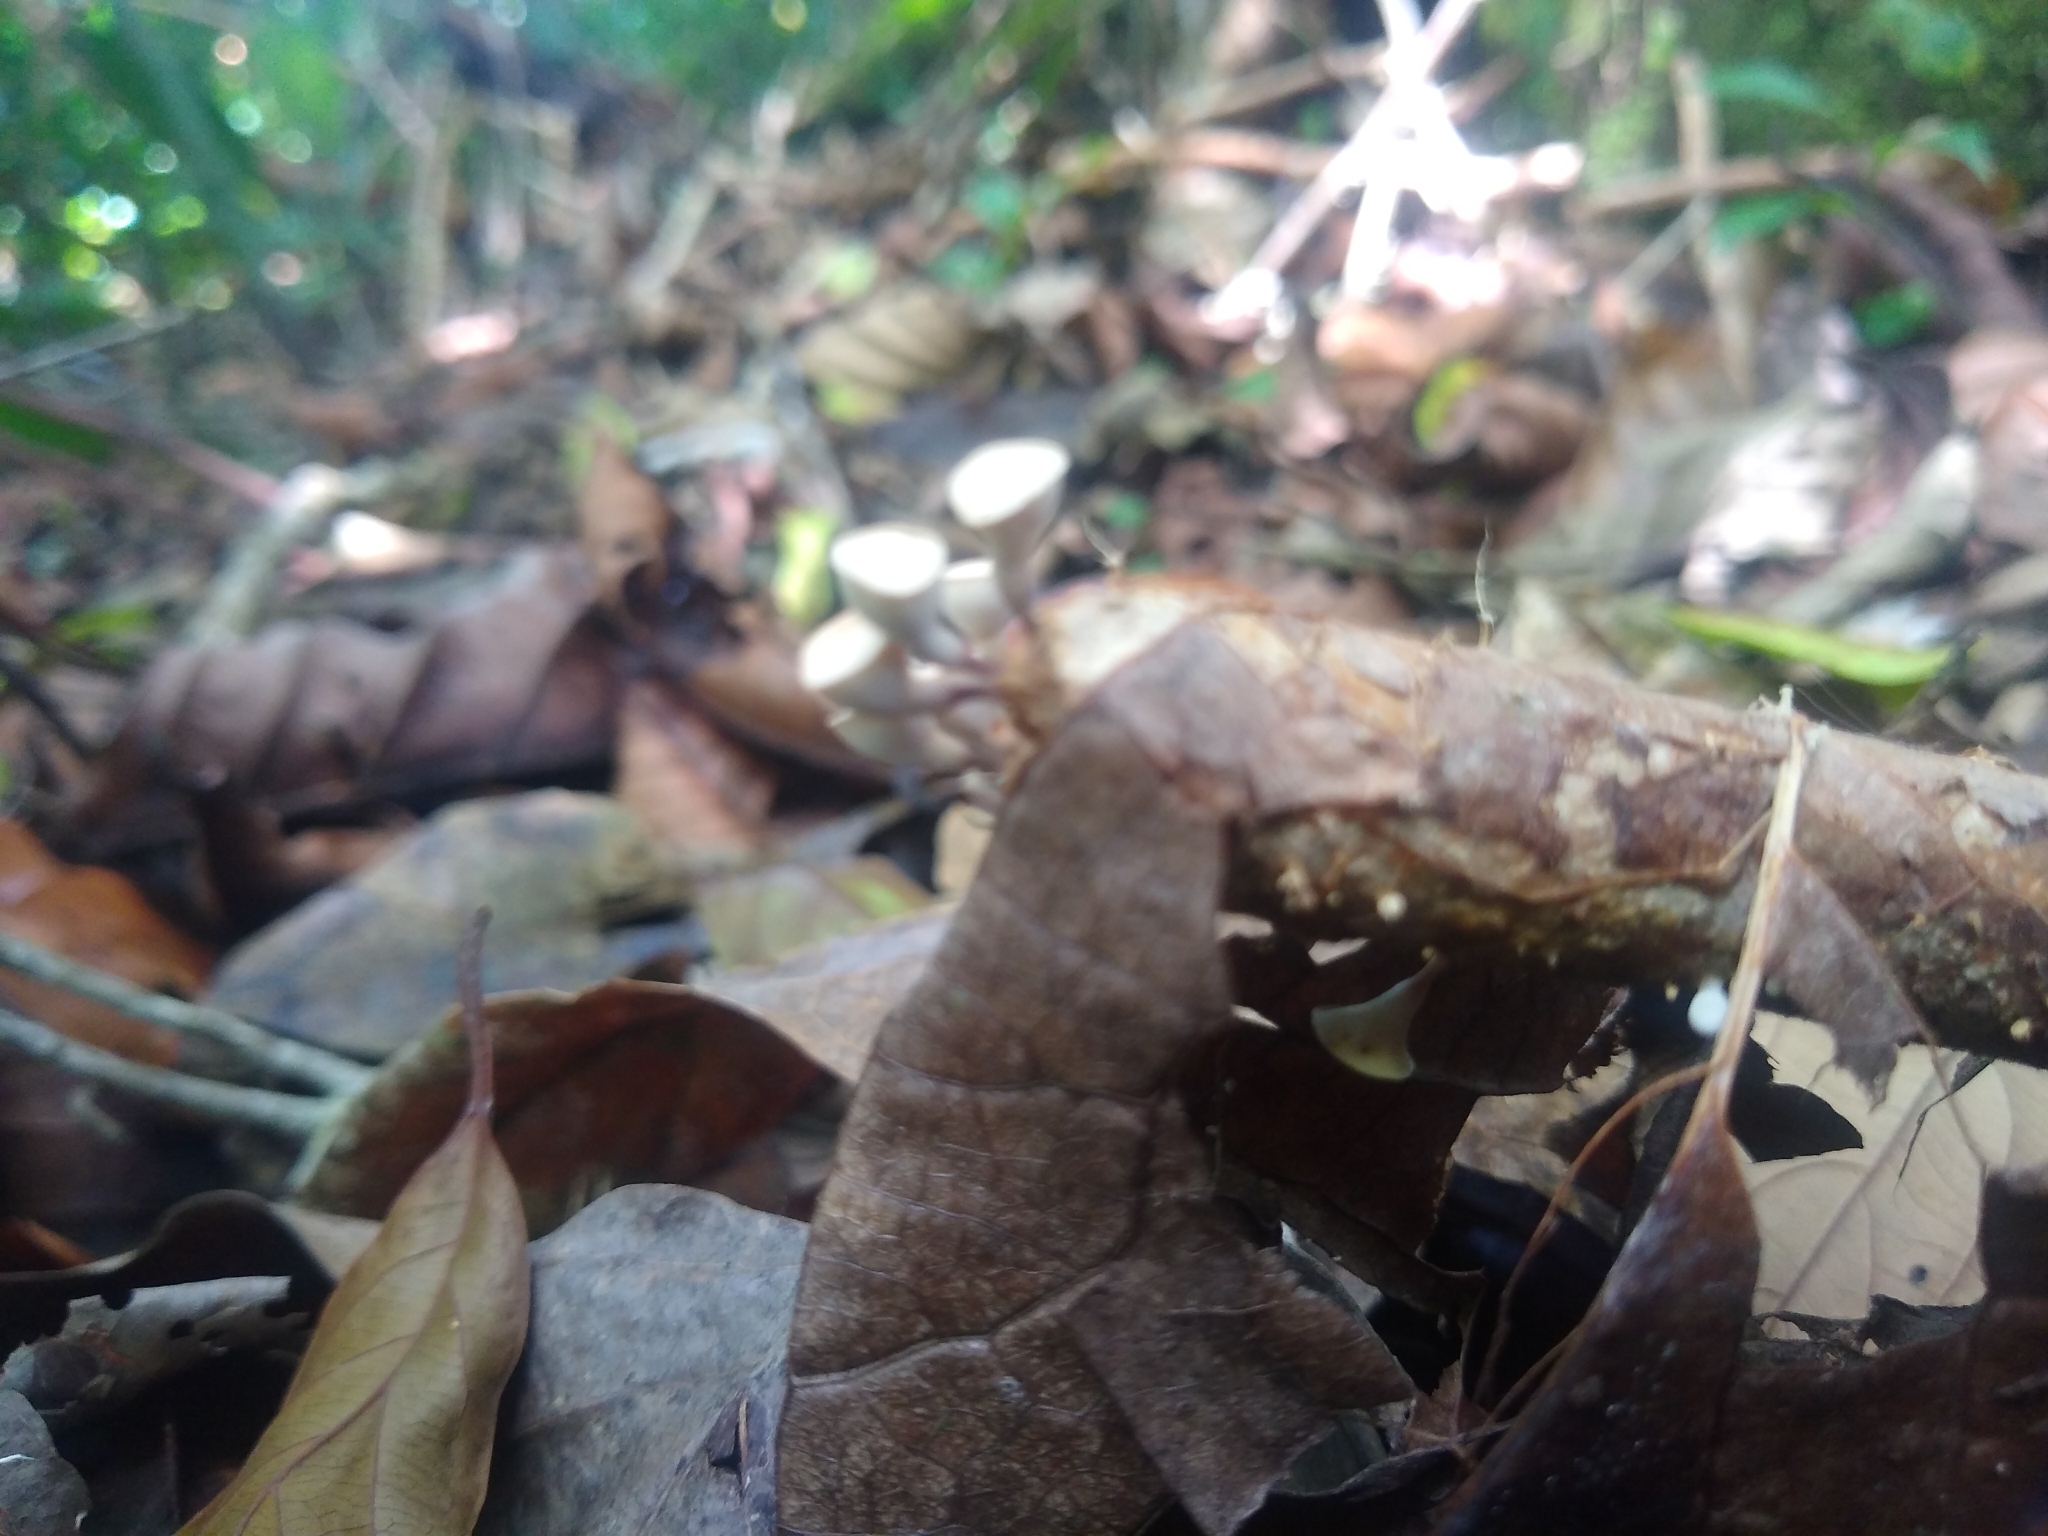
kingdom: Fungi
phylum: Basidiomycota
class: Agaricomycetes
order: Agaricales
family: Omphalotaceae
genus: Gymnopus
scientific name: Gymnopus montagnei
